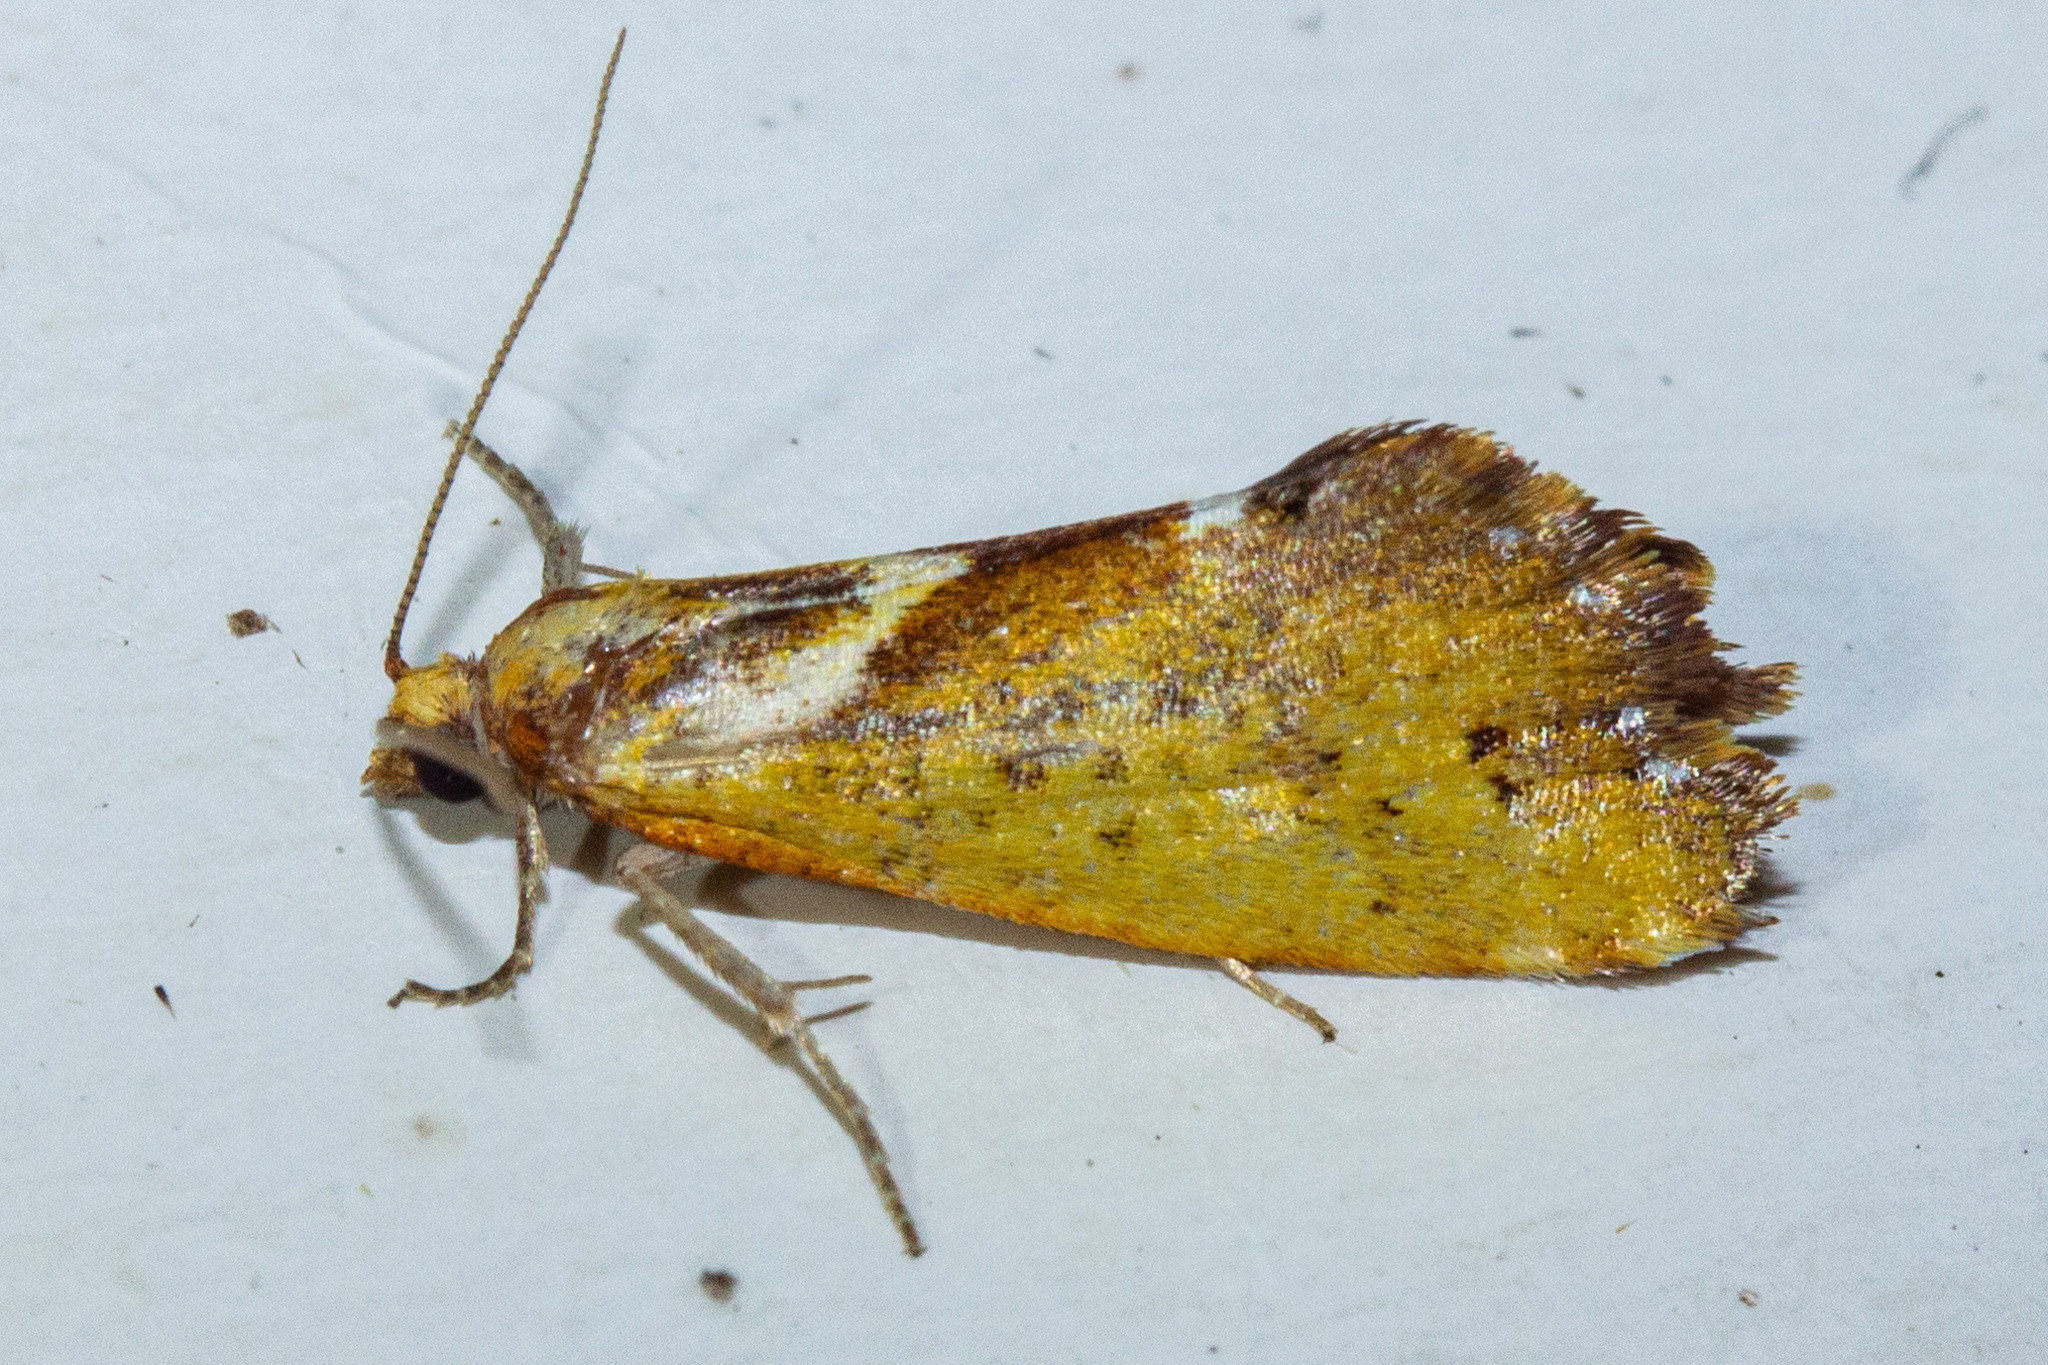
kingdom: Animalia
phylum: Arthropoda
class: Insecta
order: Lepidoptera
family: Tortricidae
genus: Pyrgotis
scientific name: Pyrgotis pyramidias
